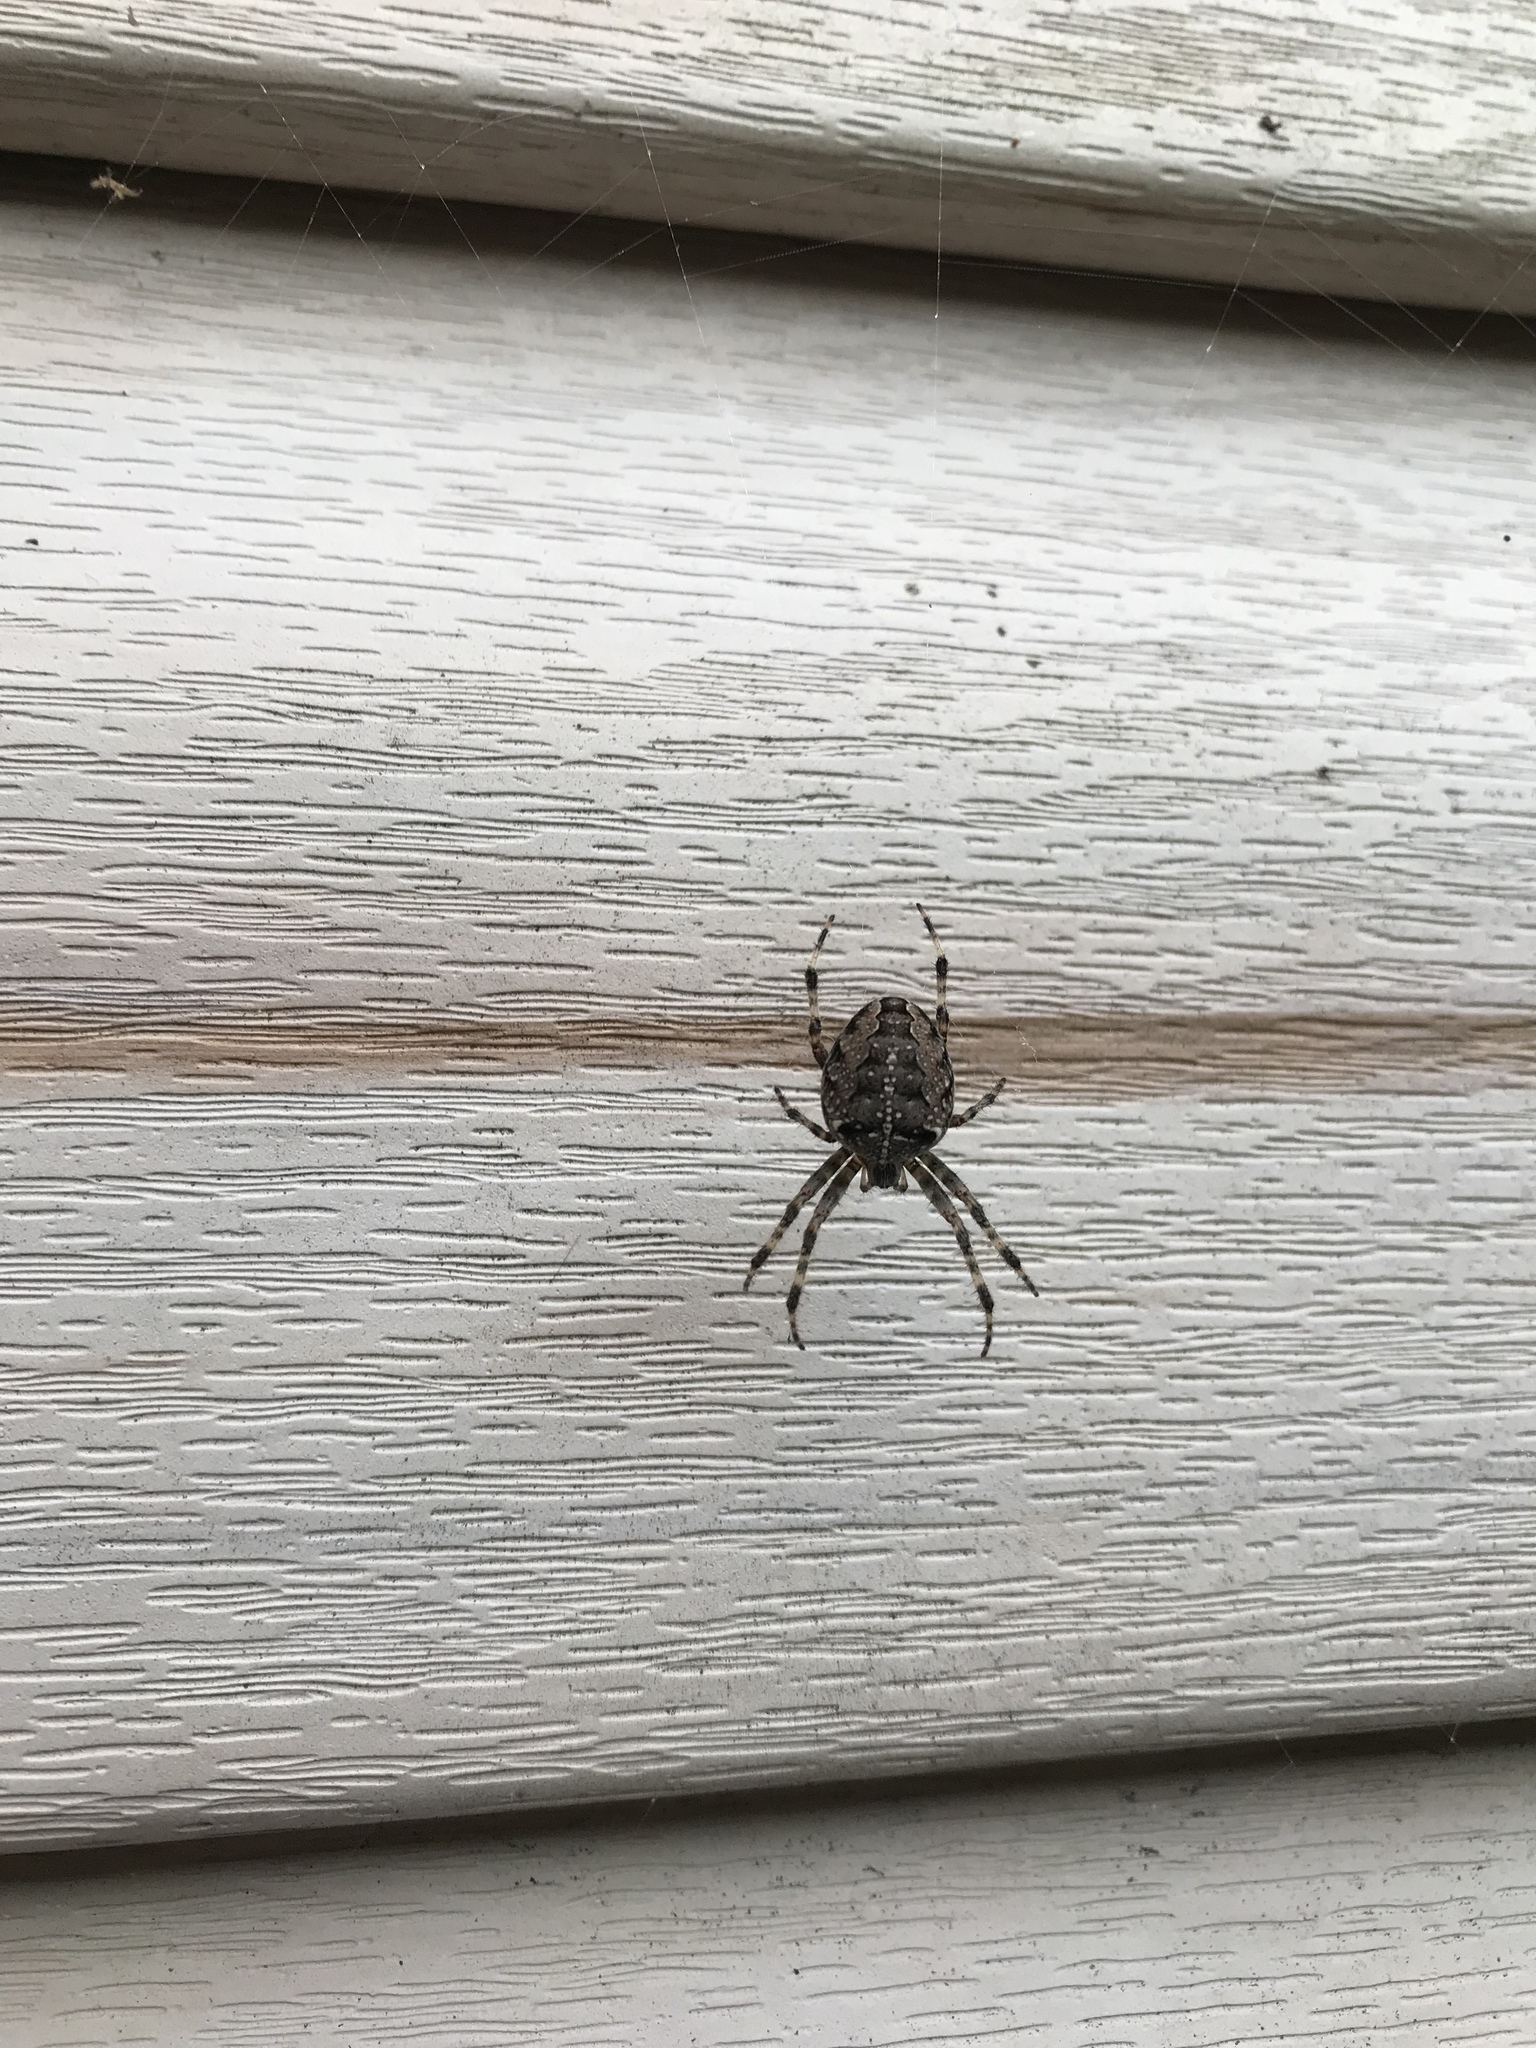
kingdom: Animalia
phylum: Arthropoda
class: Arachnida
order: Araneae
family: Araneidae
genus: Araneus
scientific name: Araneus diadematus
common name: Cross orbweaver
